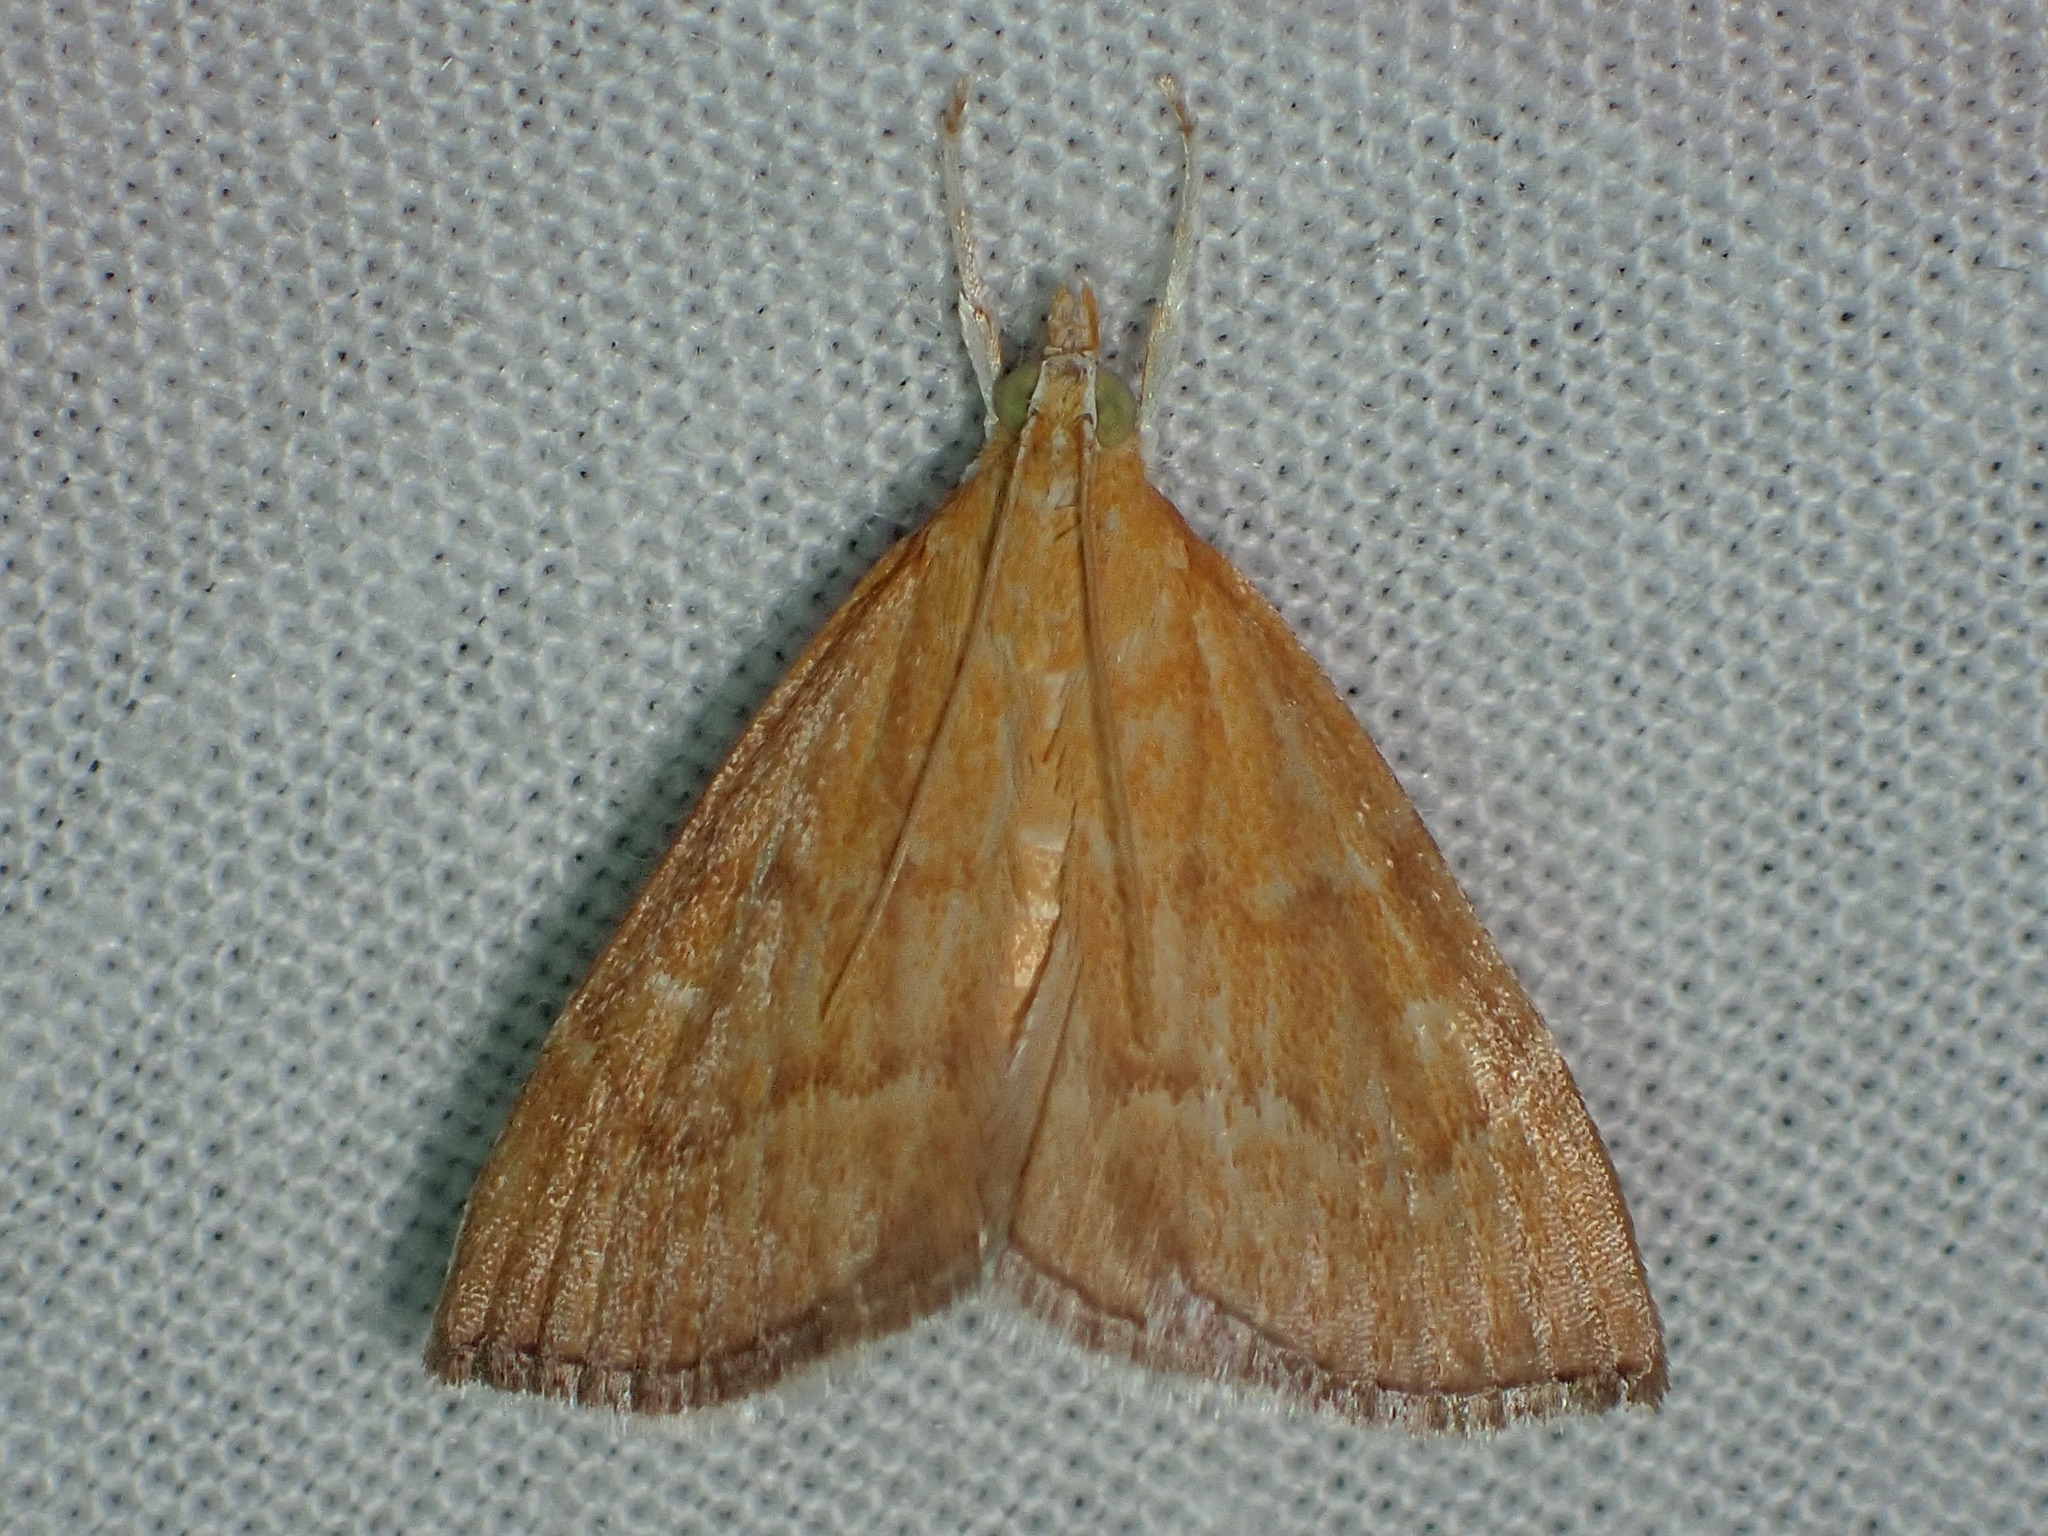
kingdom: Animalia
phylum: Arthropoda
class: Insecta
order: Lepidoptera
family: Crambidae
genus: Glaphyria
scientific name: Glaphyria invisalis
